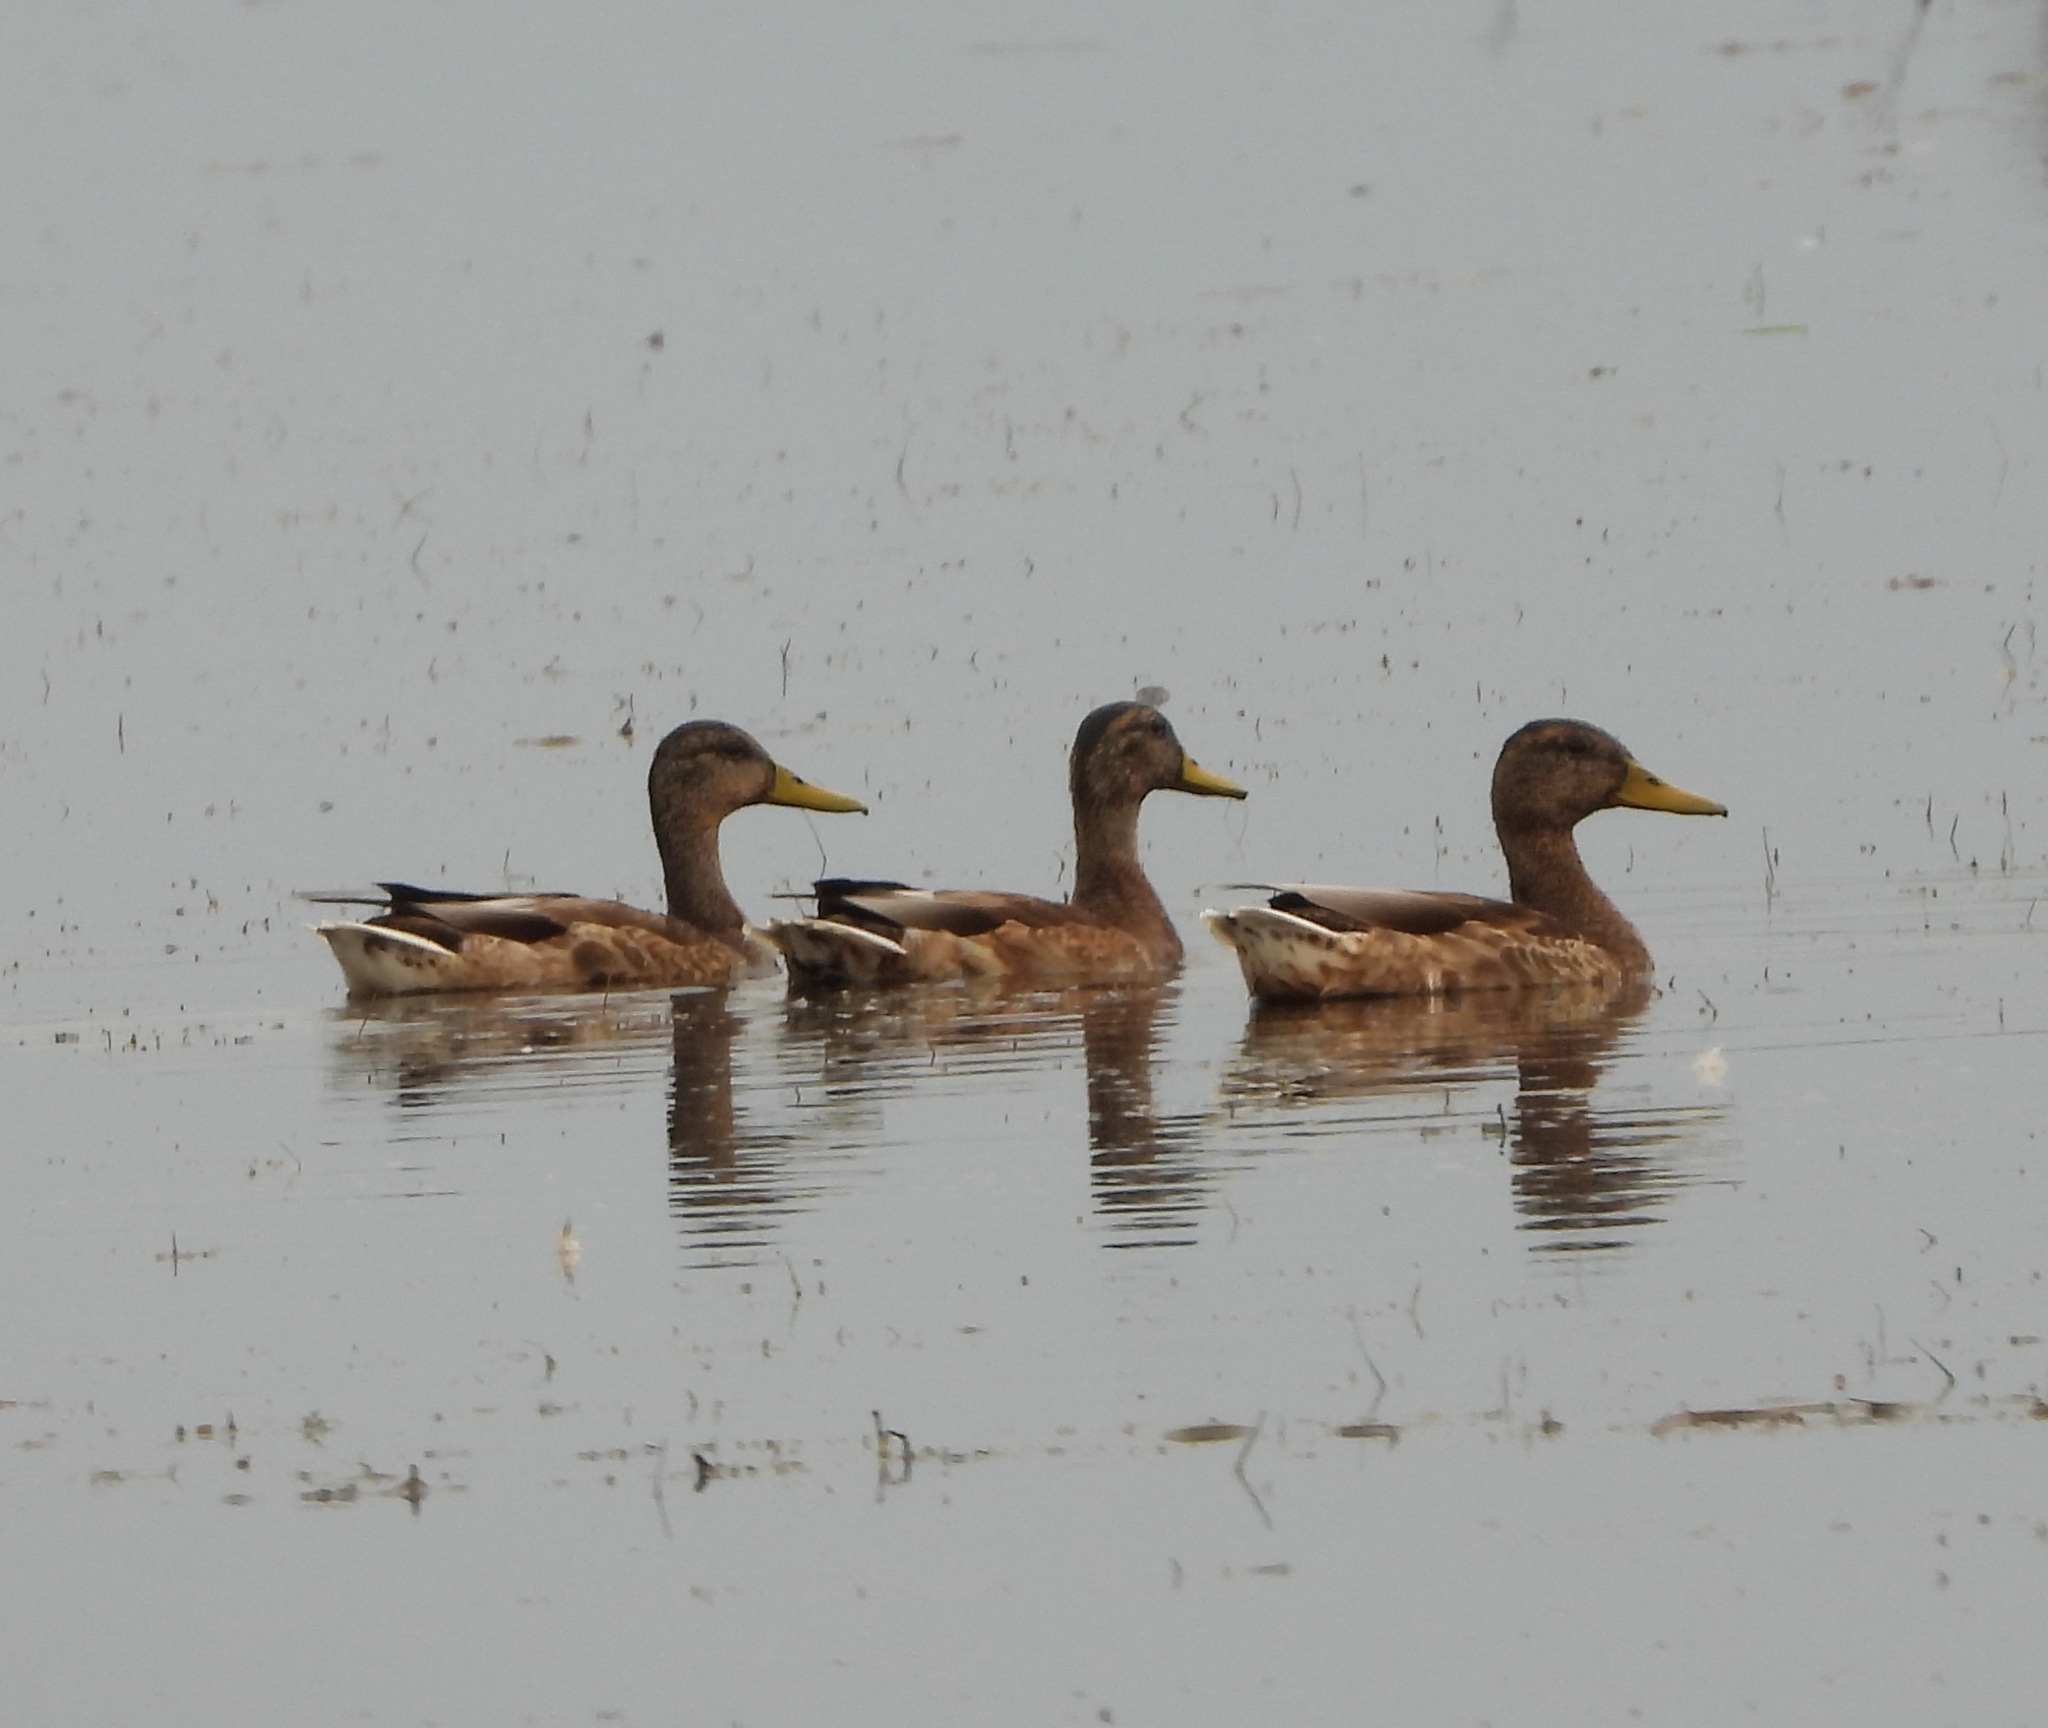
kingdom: Animalia
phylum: Chordata
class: Aves
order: Anseriformes
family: Anatidae
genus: Anas
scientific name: Anas platyrhynchos
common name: Mallard
